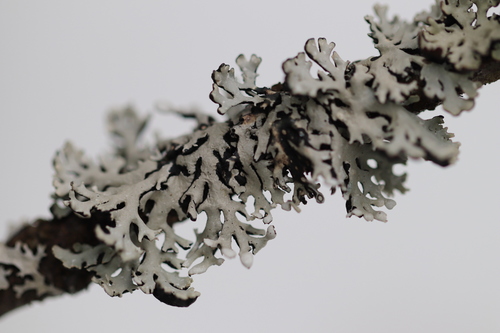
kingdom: Fungi
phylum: Ascomycota
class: Lecanoromycetes
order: Lecanorales
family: Parmeliaceae
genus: Hypogymnia
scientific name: Hypogymnia physodes
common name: Dark crottle
